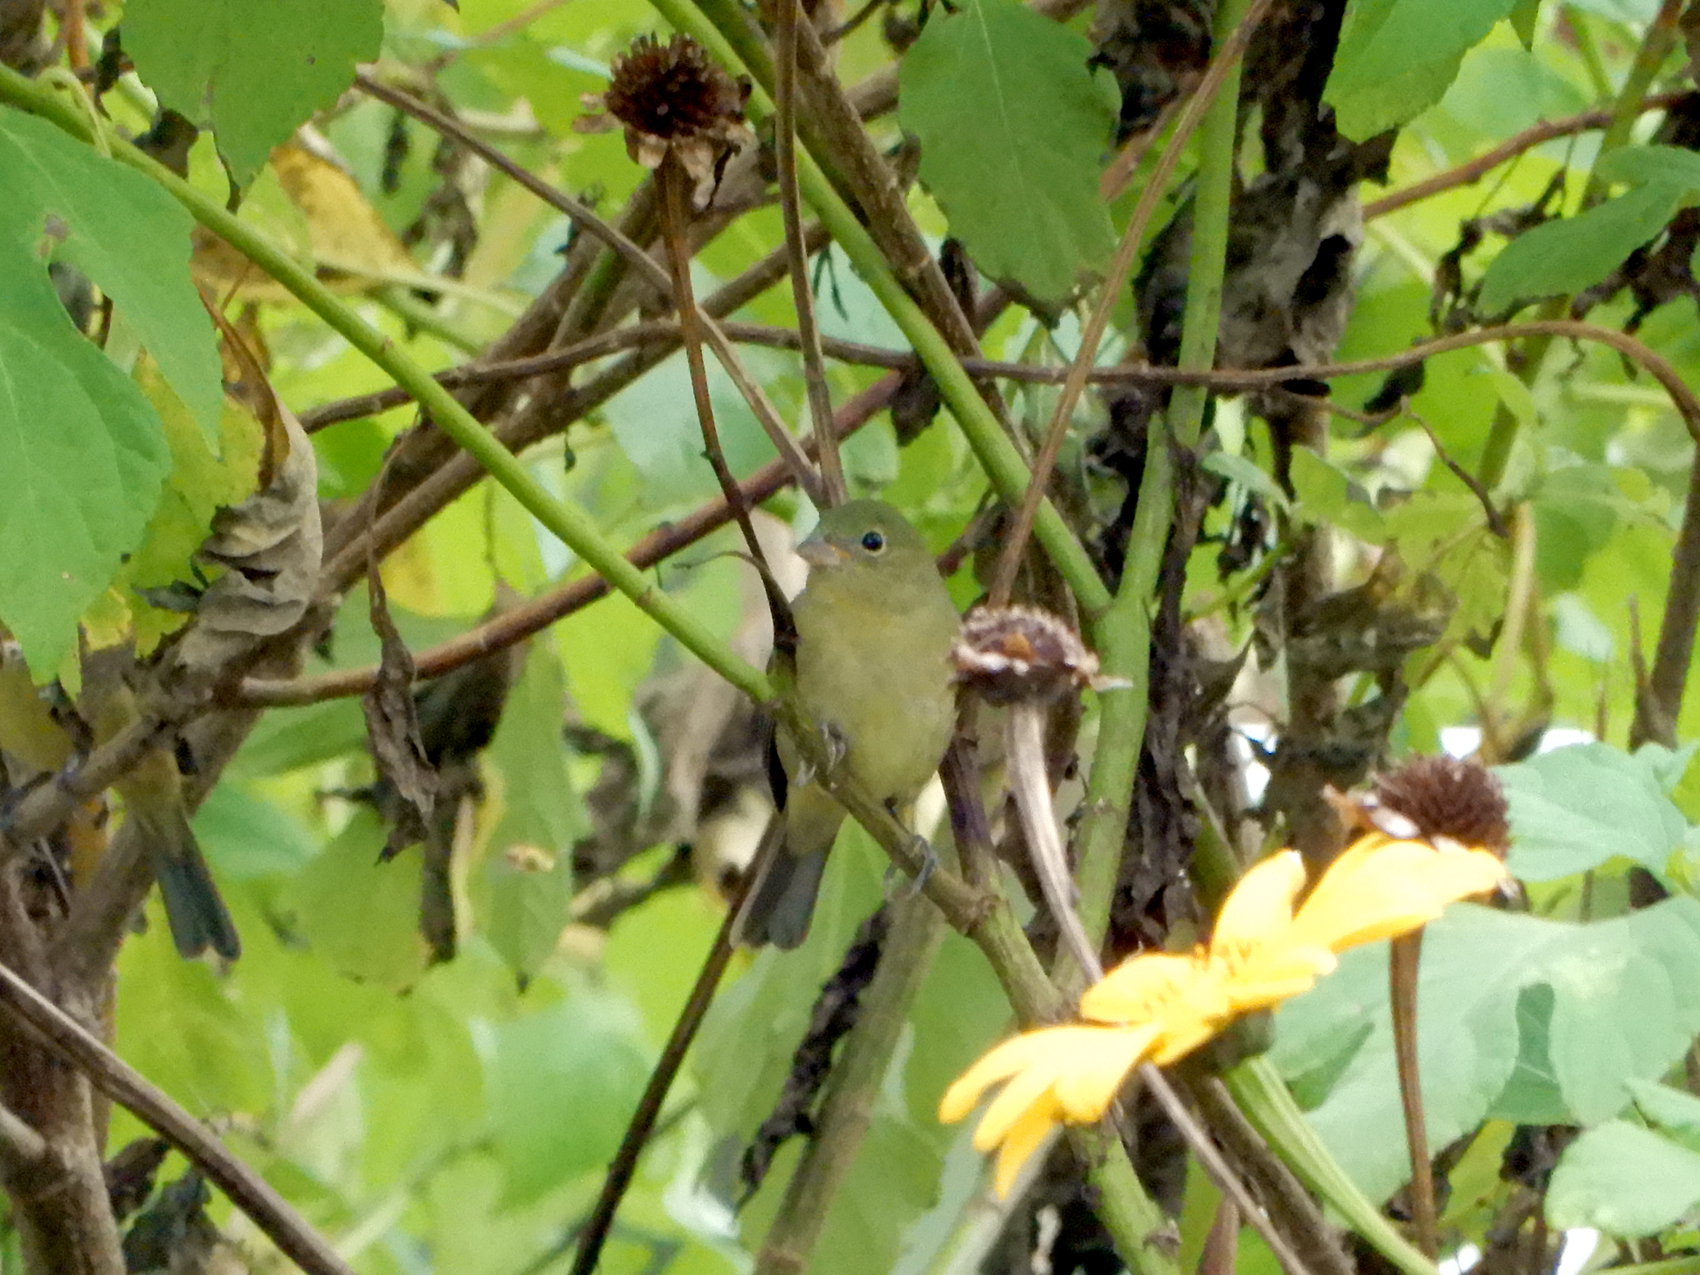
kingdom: Animalia
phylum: Chordata
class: Aves
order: Passeriformes
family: Cardinalidae
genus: Passerina
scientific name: Passerina ciris
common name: Painted bunting
